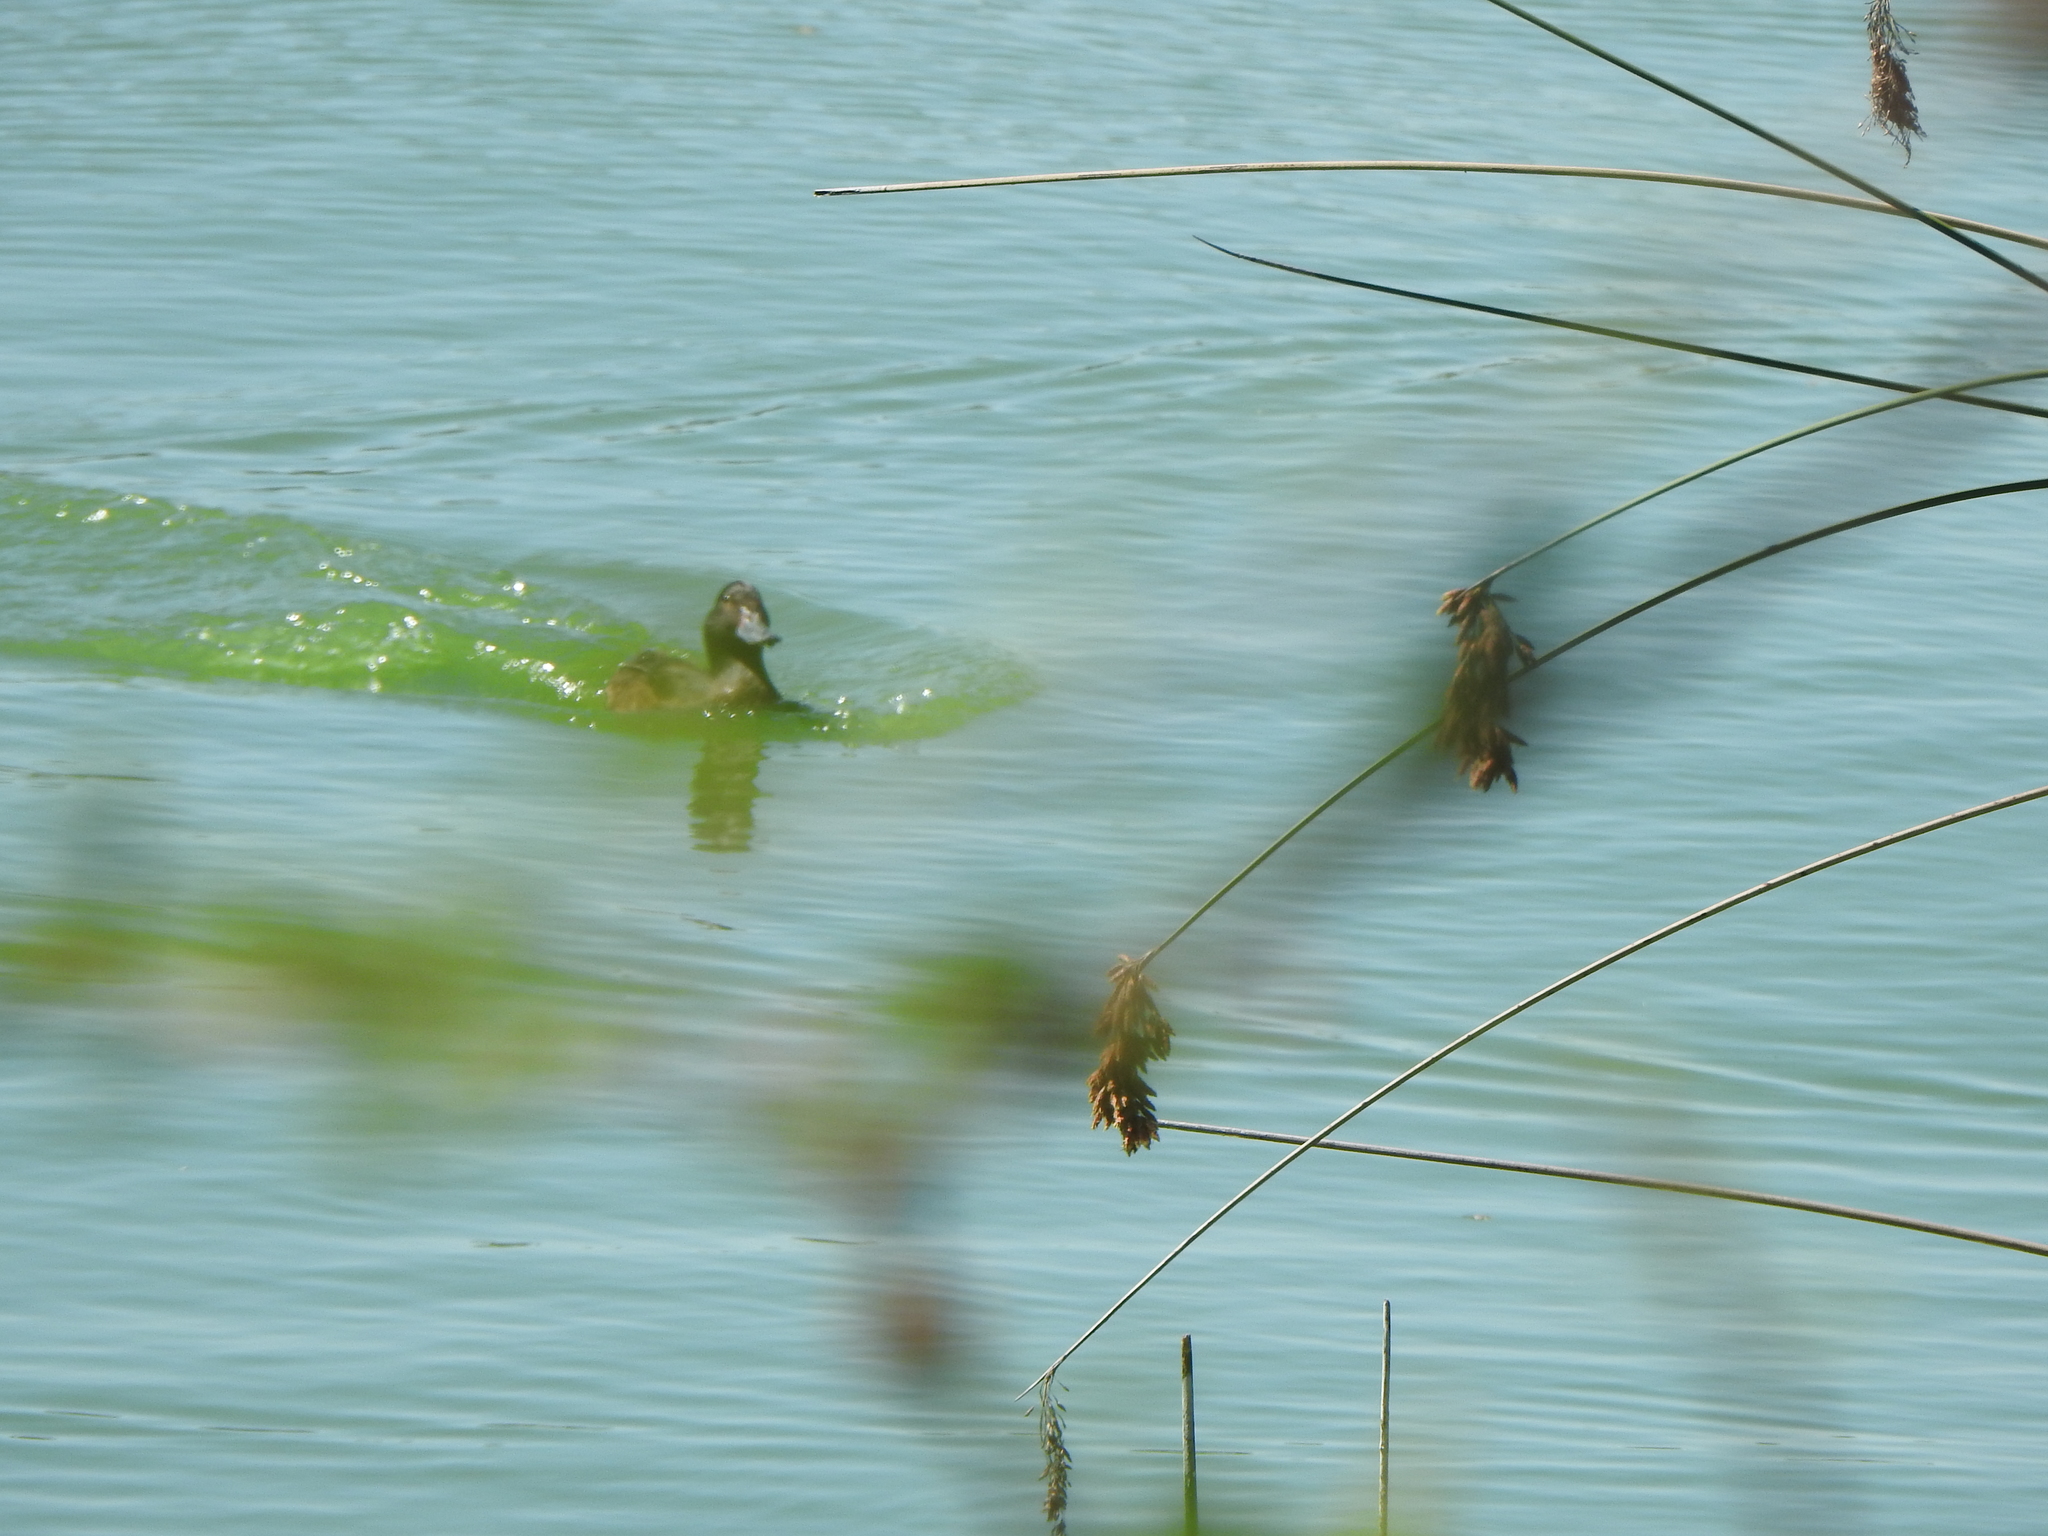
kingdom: Animalia
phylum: Chordata
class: Aves
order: Anseriformes
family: Anatidae
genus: Heteronetta
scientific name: Heteronetta atricapilla
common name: Black-headed duck
